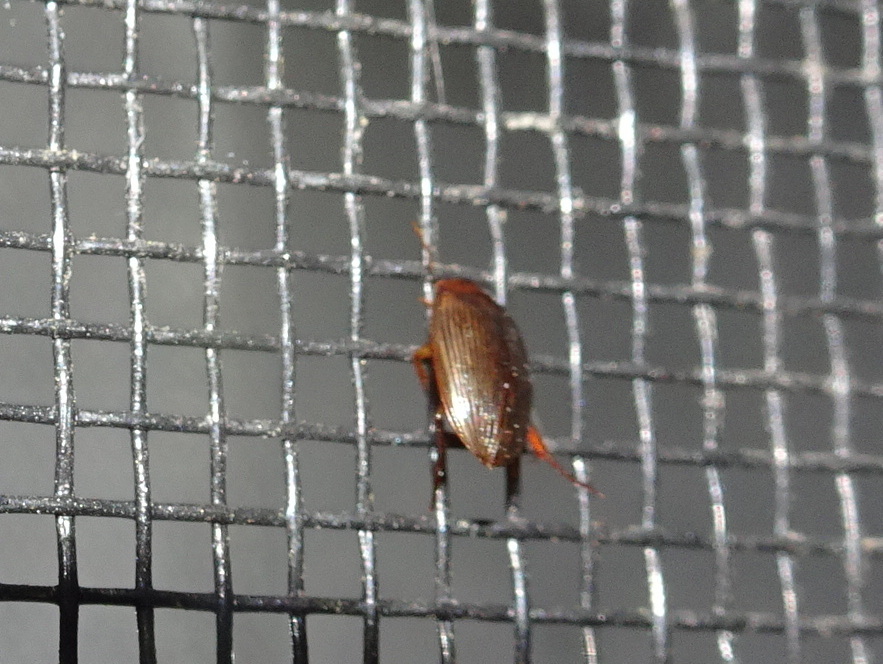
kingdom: Animalia
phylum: Arthropoda
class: Insecta
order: Coleoptera
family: Dytiscidae
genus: Copelatus
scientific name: Copelatus glyphicus
